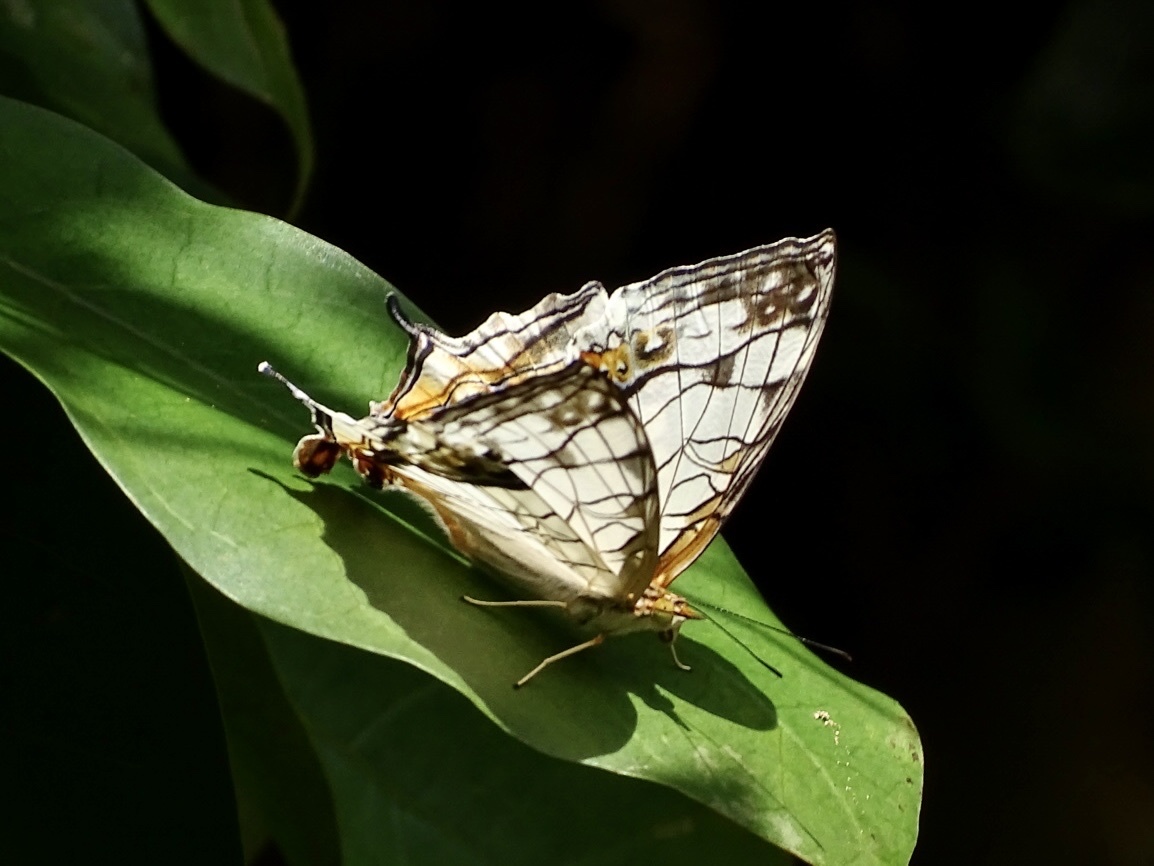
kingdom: Animalia
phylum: Arthropoda
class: Insecta
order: Lepidoptera
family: Nymphalidae
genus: Cyrestis
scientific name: Cyrestis thyodamas
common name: Common mapwing
